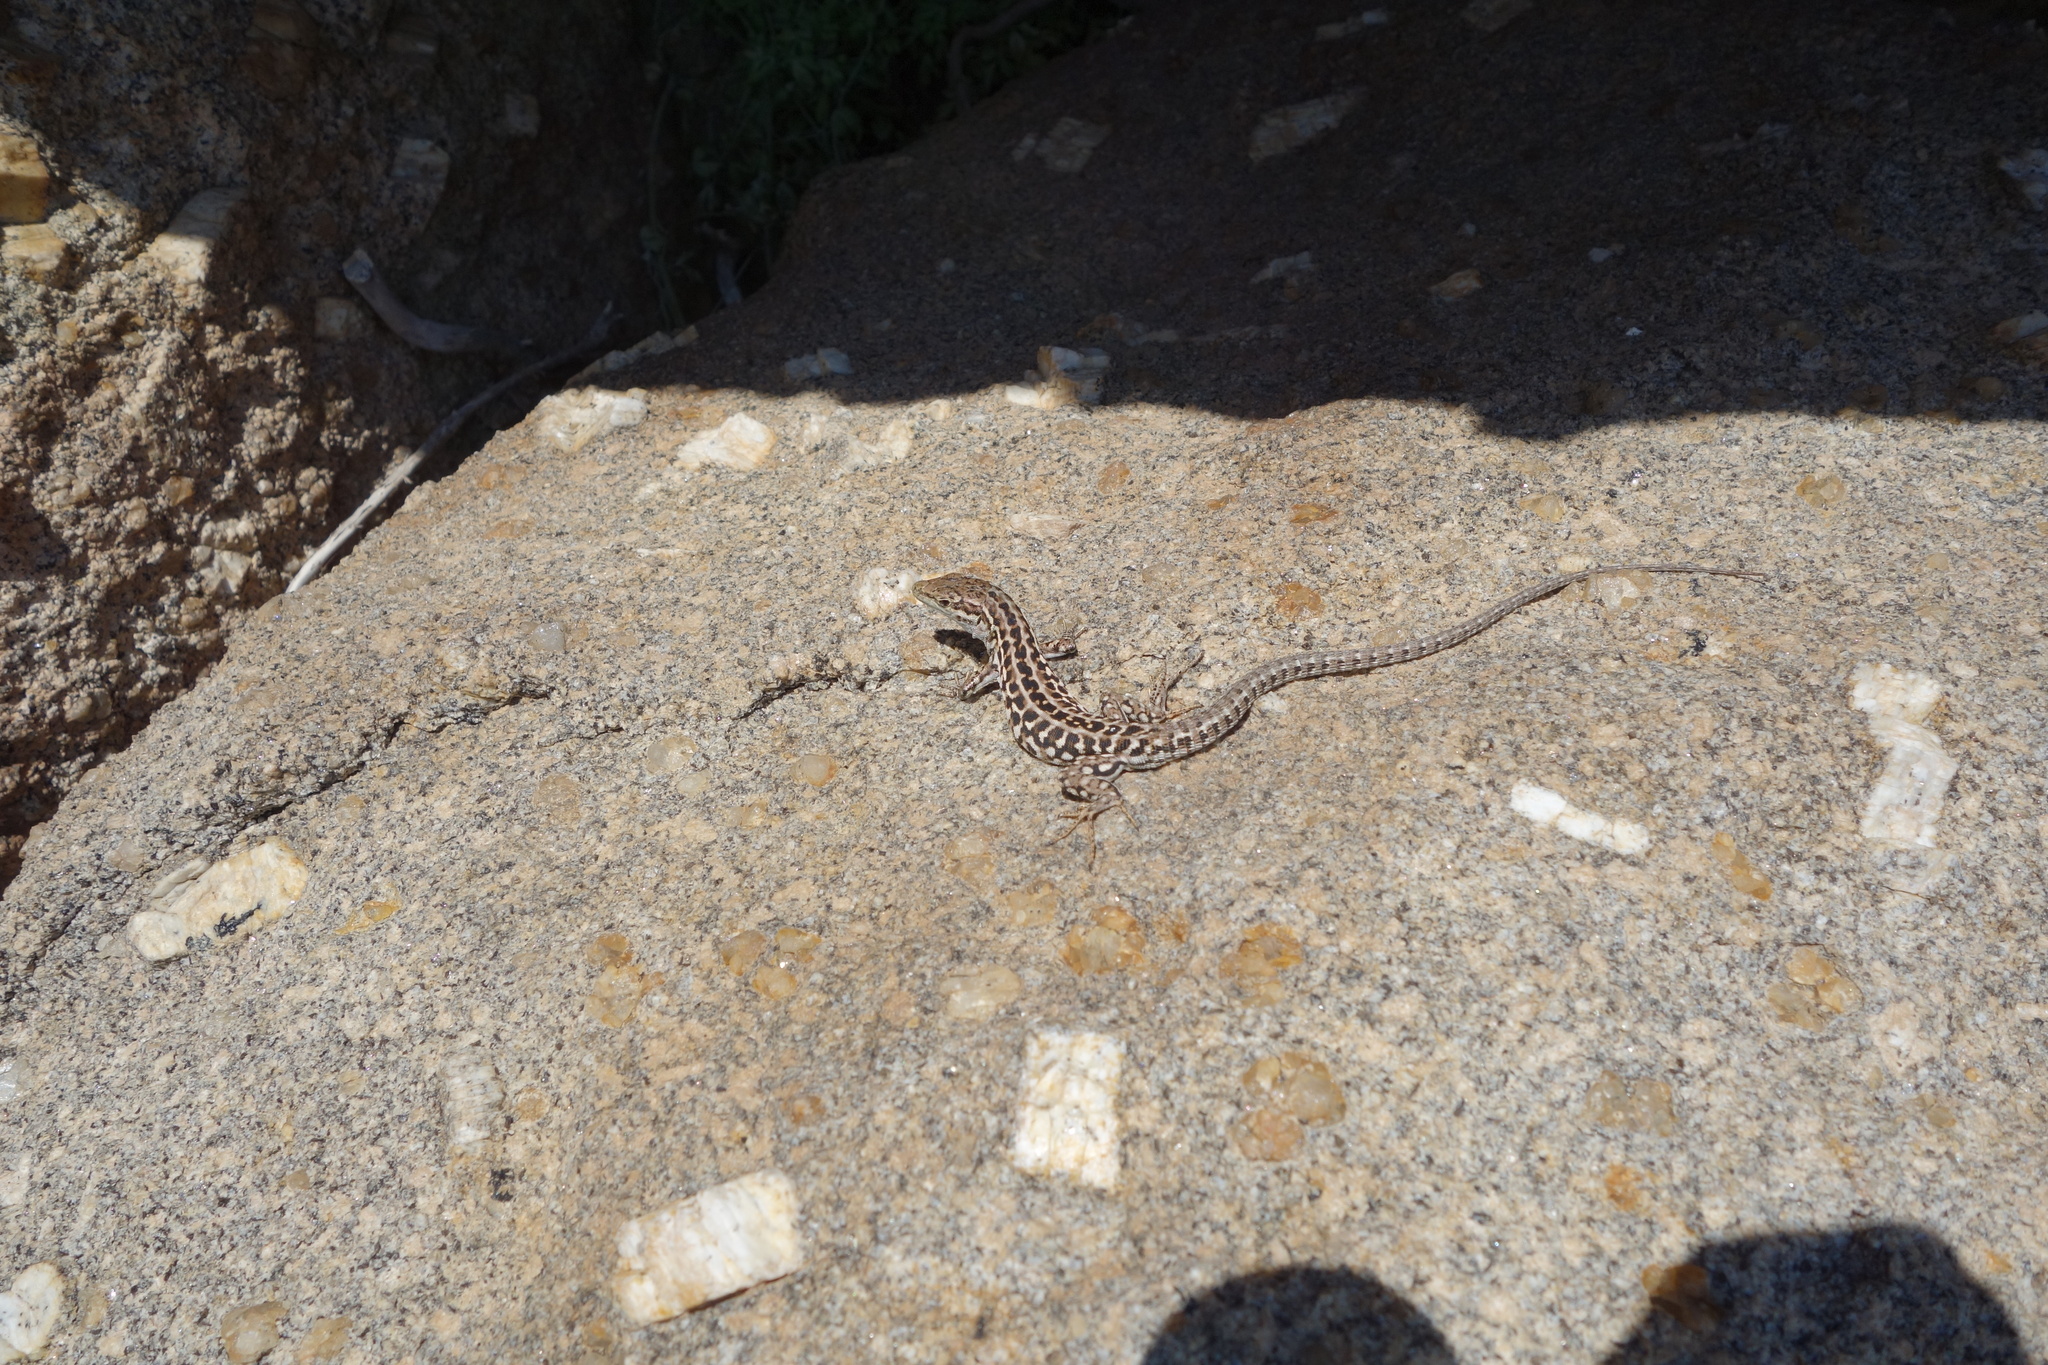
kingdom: Animalia
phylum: Chordata
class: Squamata
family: Lacertidae
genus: Podarcis
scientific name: Podarcis siculus
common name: Italian wall lizard
